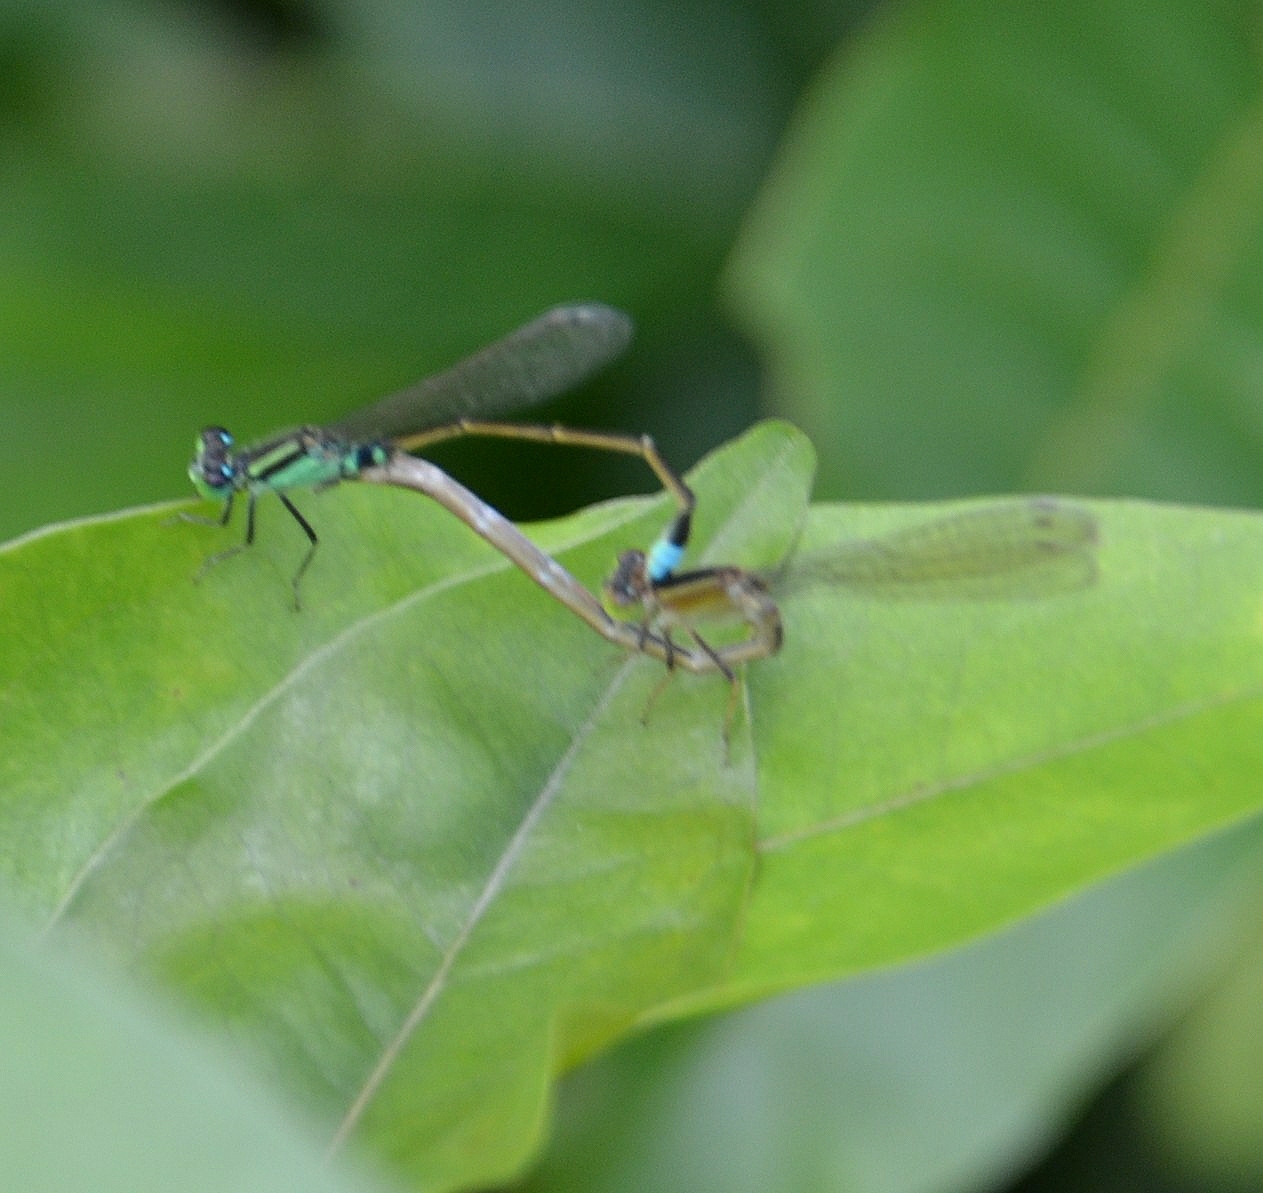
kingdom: Animalia
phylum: Arthropoda
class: Insecta
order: Odonata
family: Coenagrionidae
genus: Ischnura
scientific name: Ischnura senegalensis
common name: Tropical bluetail
